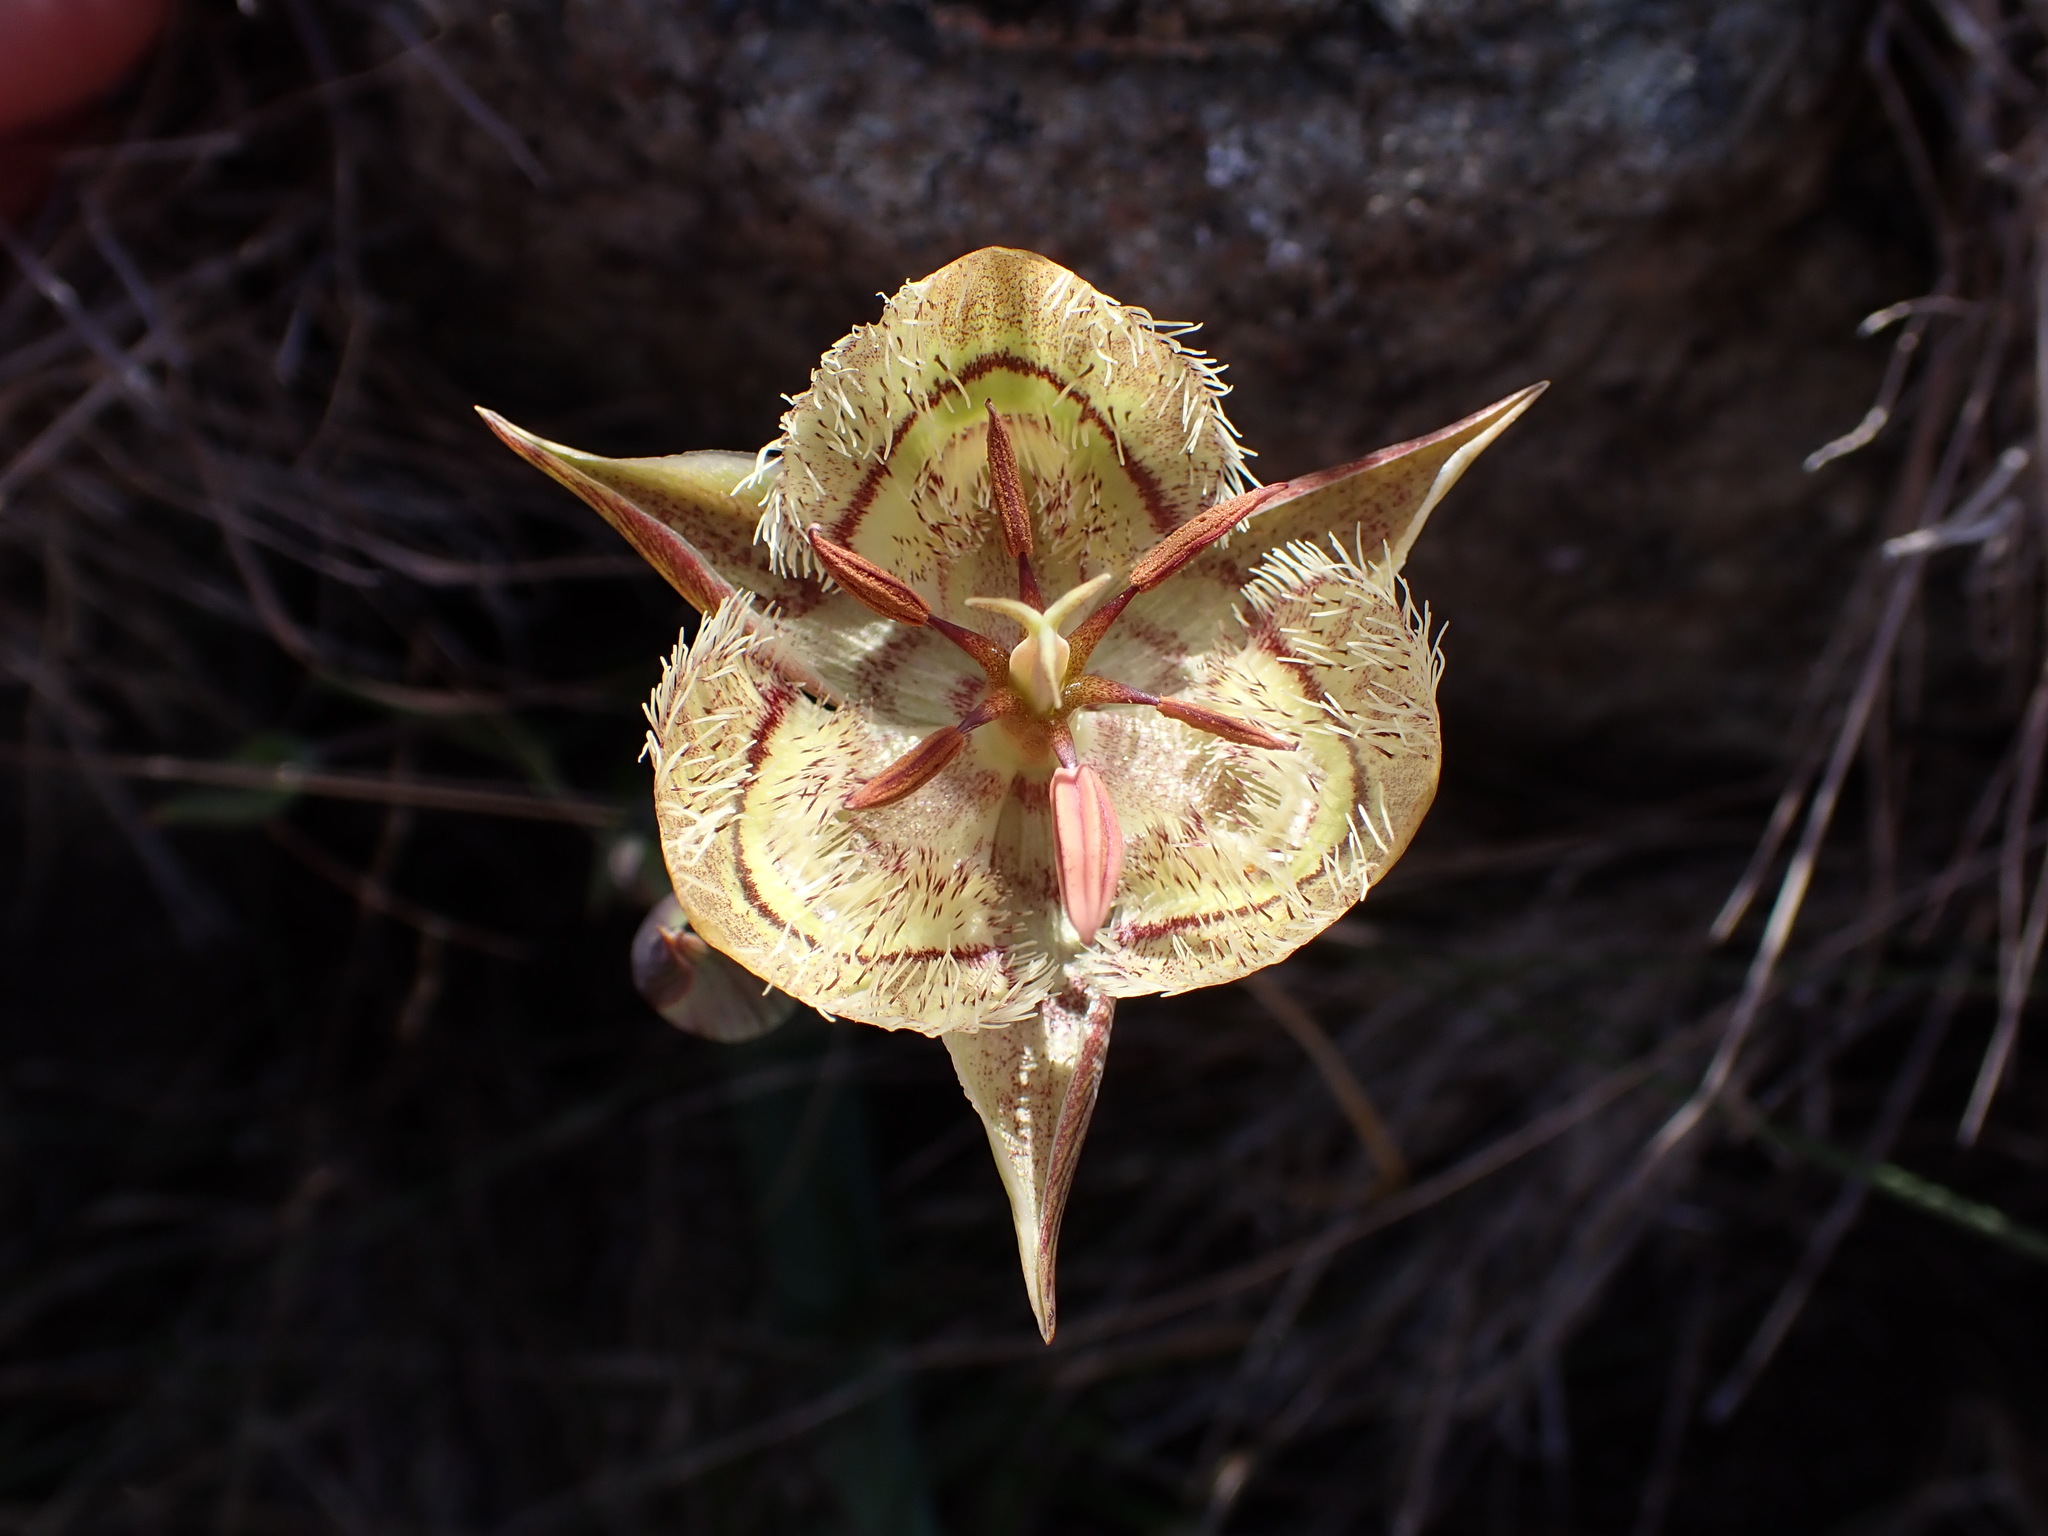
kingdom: Plantae
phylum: Tracheophyta
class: Liliopsida
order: Liliales
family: Liliaceae
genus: Calochortus
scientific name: Calochortus tiburonensis
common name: Tiburon mariposa-lily
